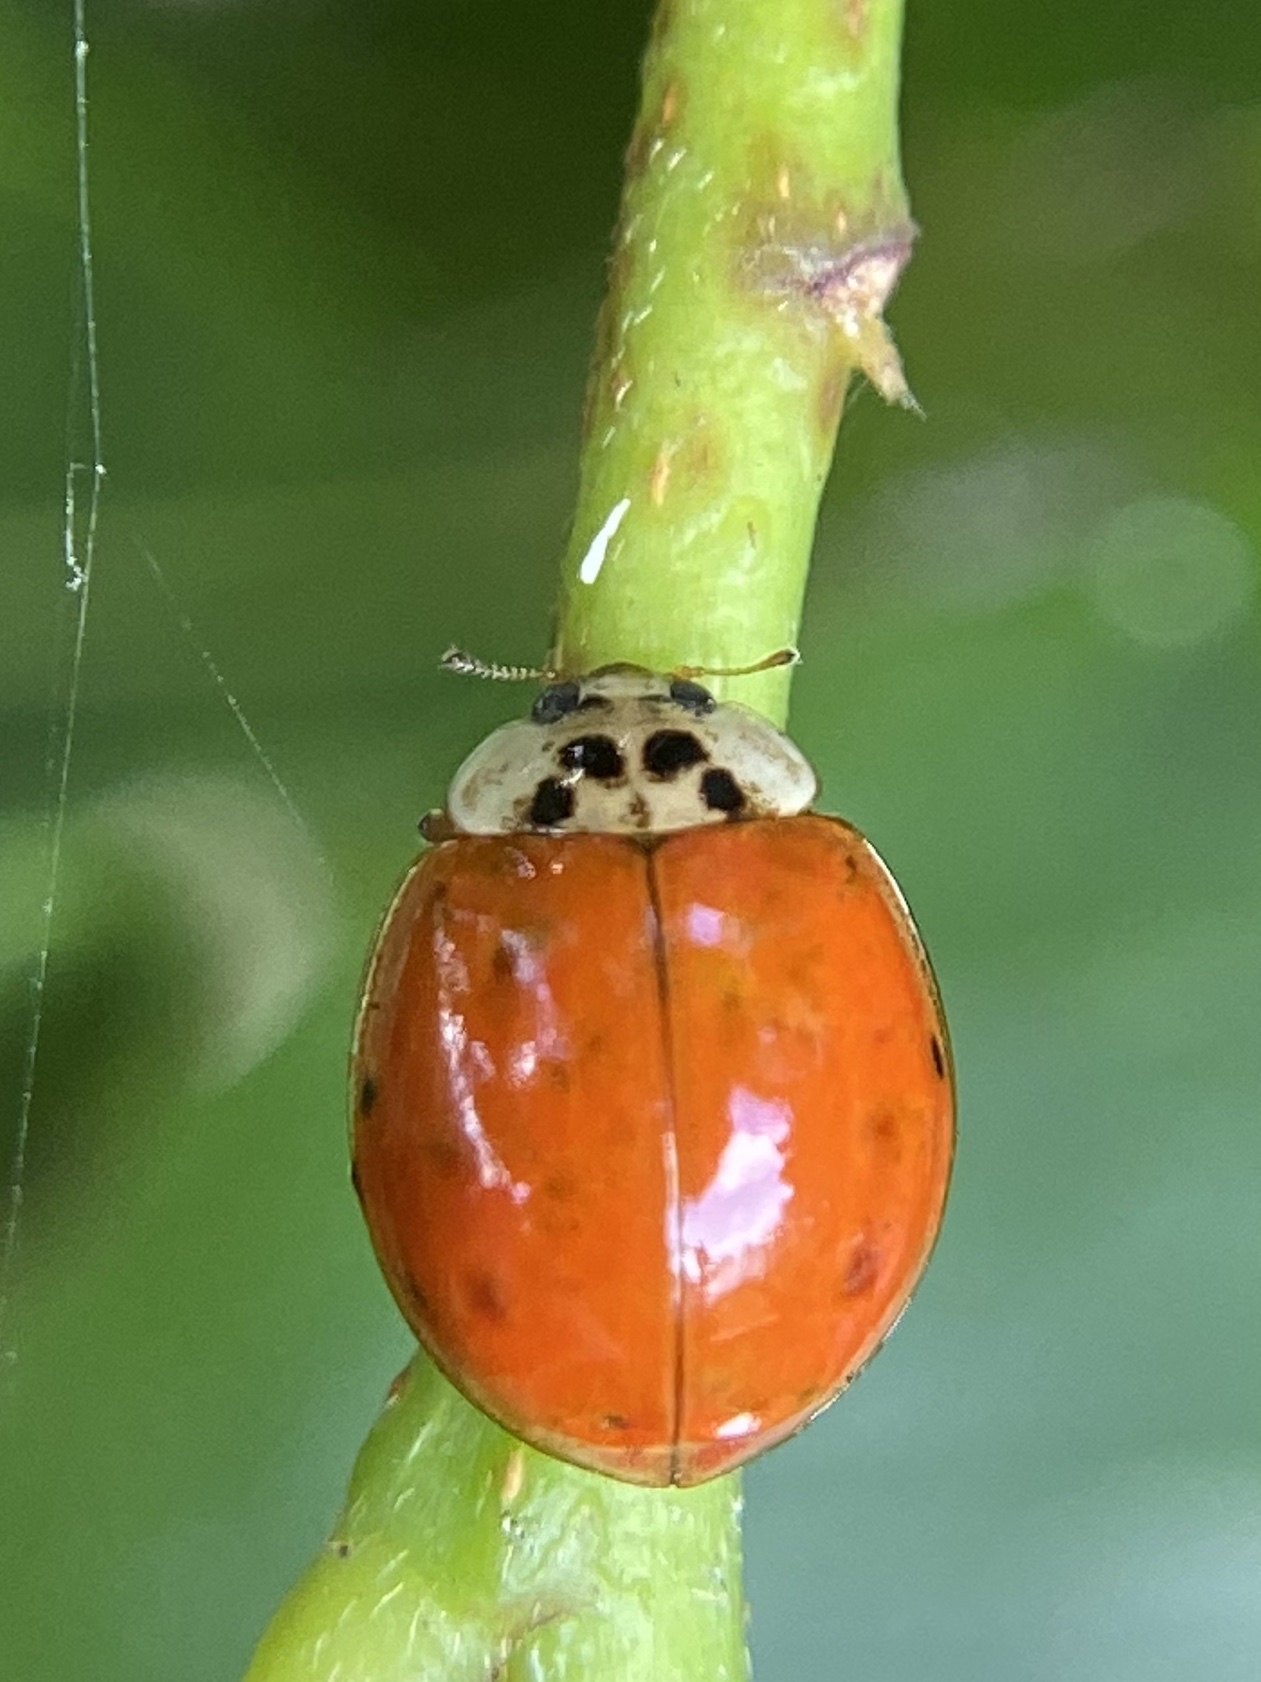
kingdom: Animalia
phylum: Arthropoda
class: Insecta
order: Coleoptera
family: Coccinellidae
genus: Harmonia
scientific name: Harmonia axyridis
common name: Harlequin ladybird
